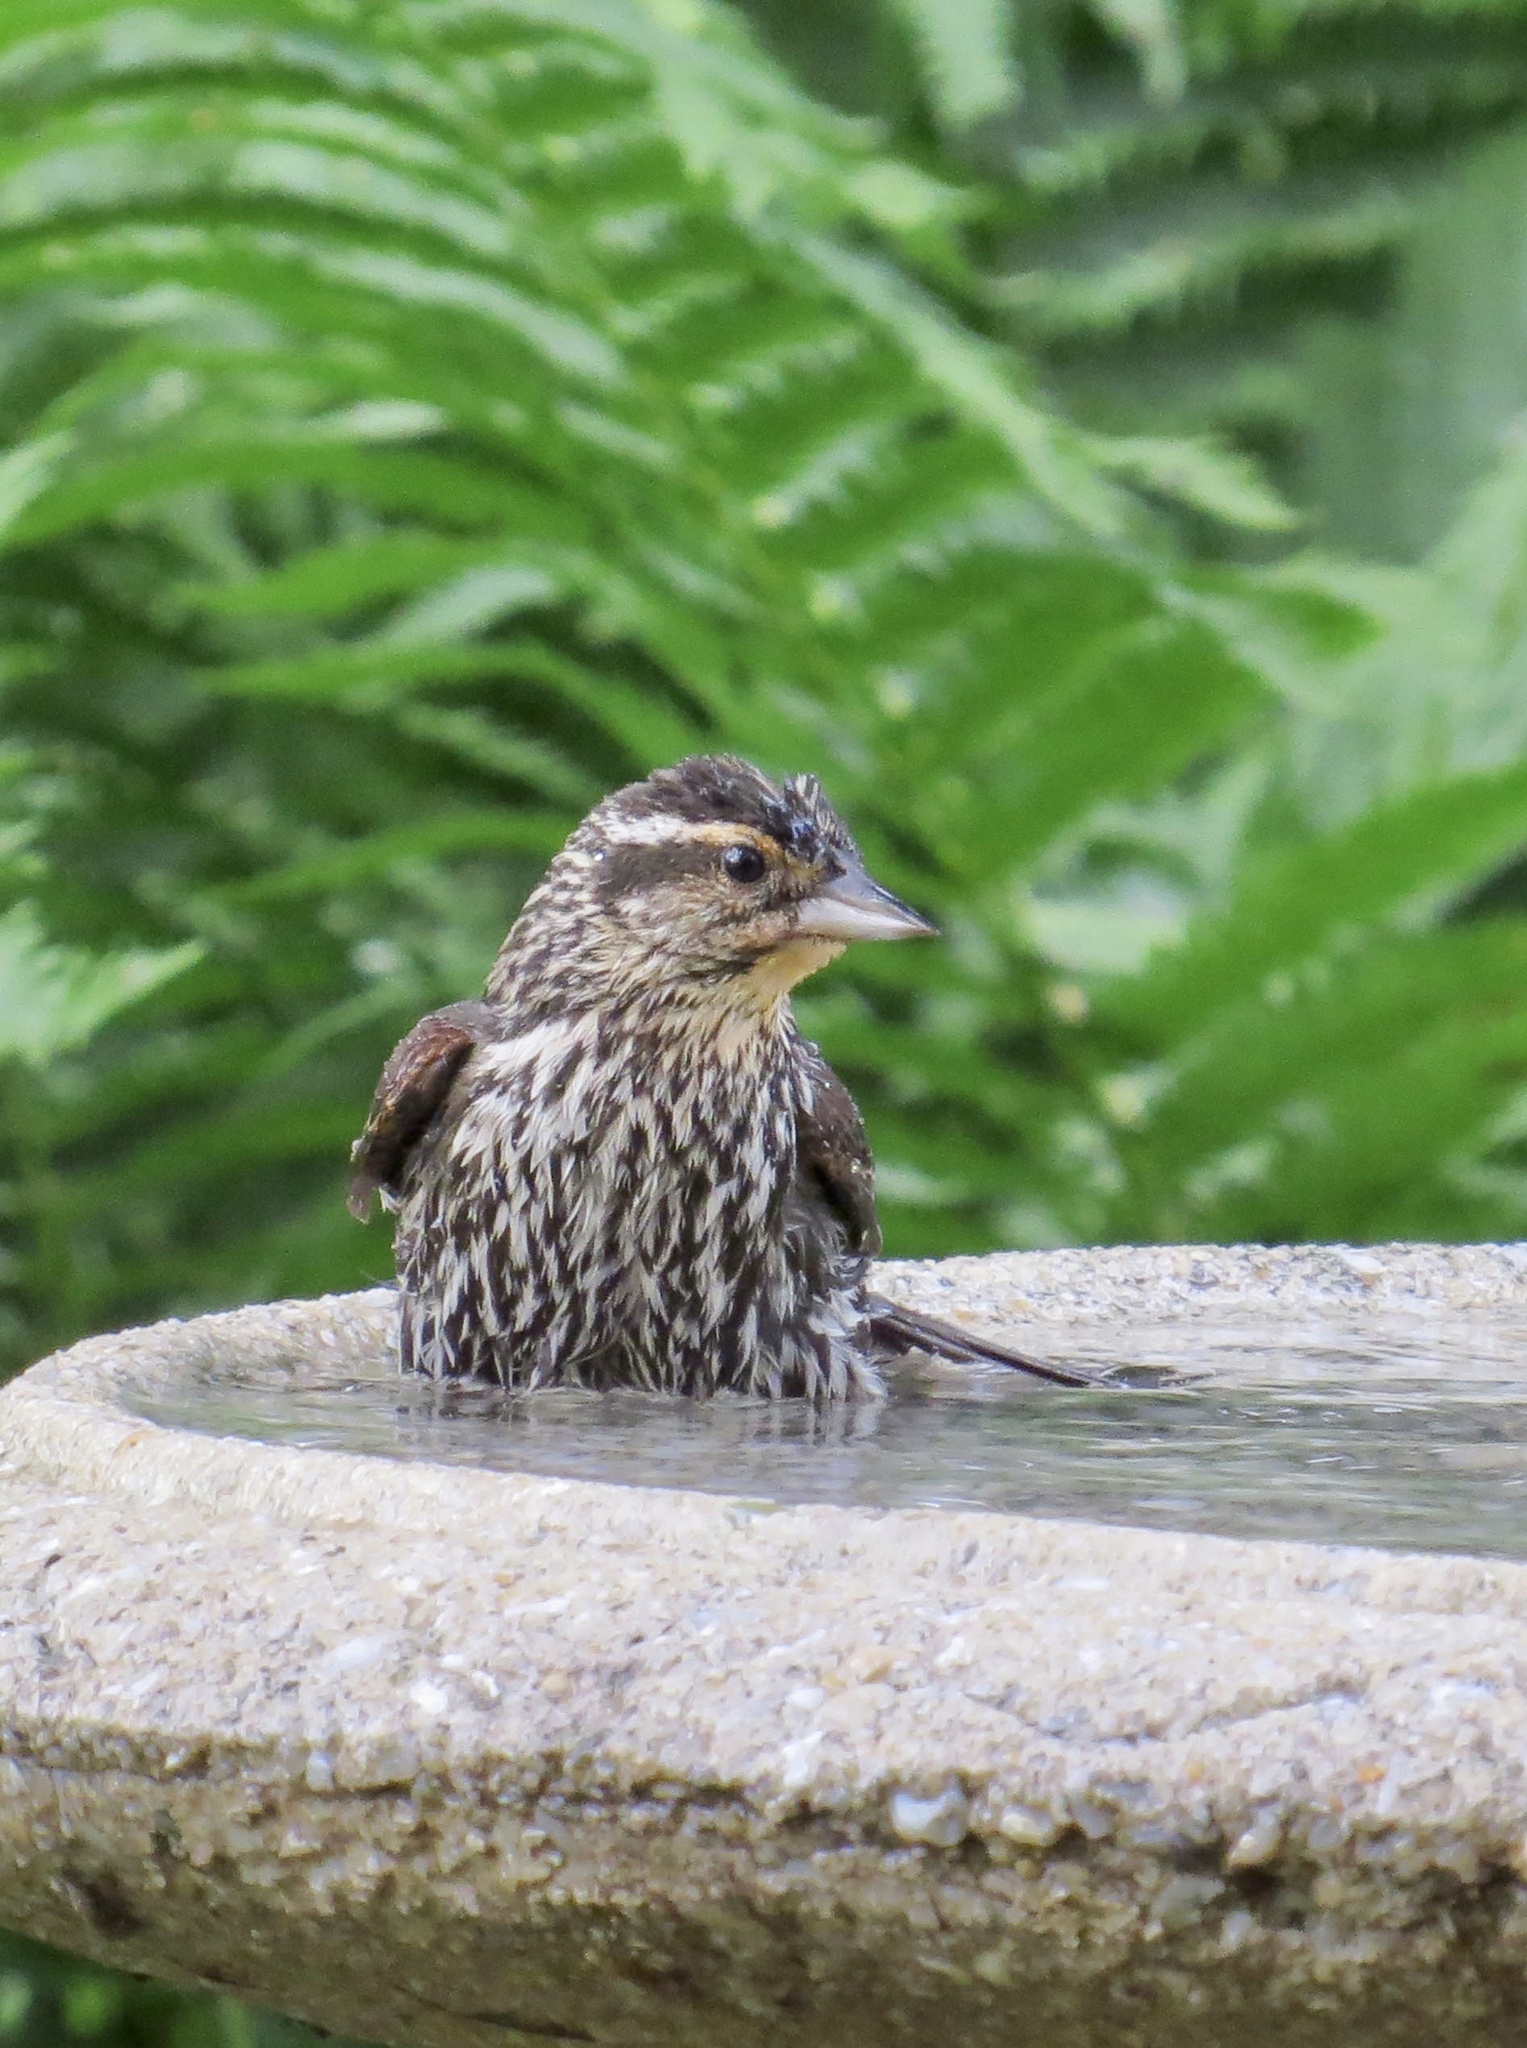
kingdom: Animalia
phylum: Chordata
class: Aves
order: Passeriformes
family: Icteridae
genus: Agelaius
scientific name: Agelaius phoeniceus
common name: Red-winged blackbird
